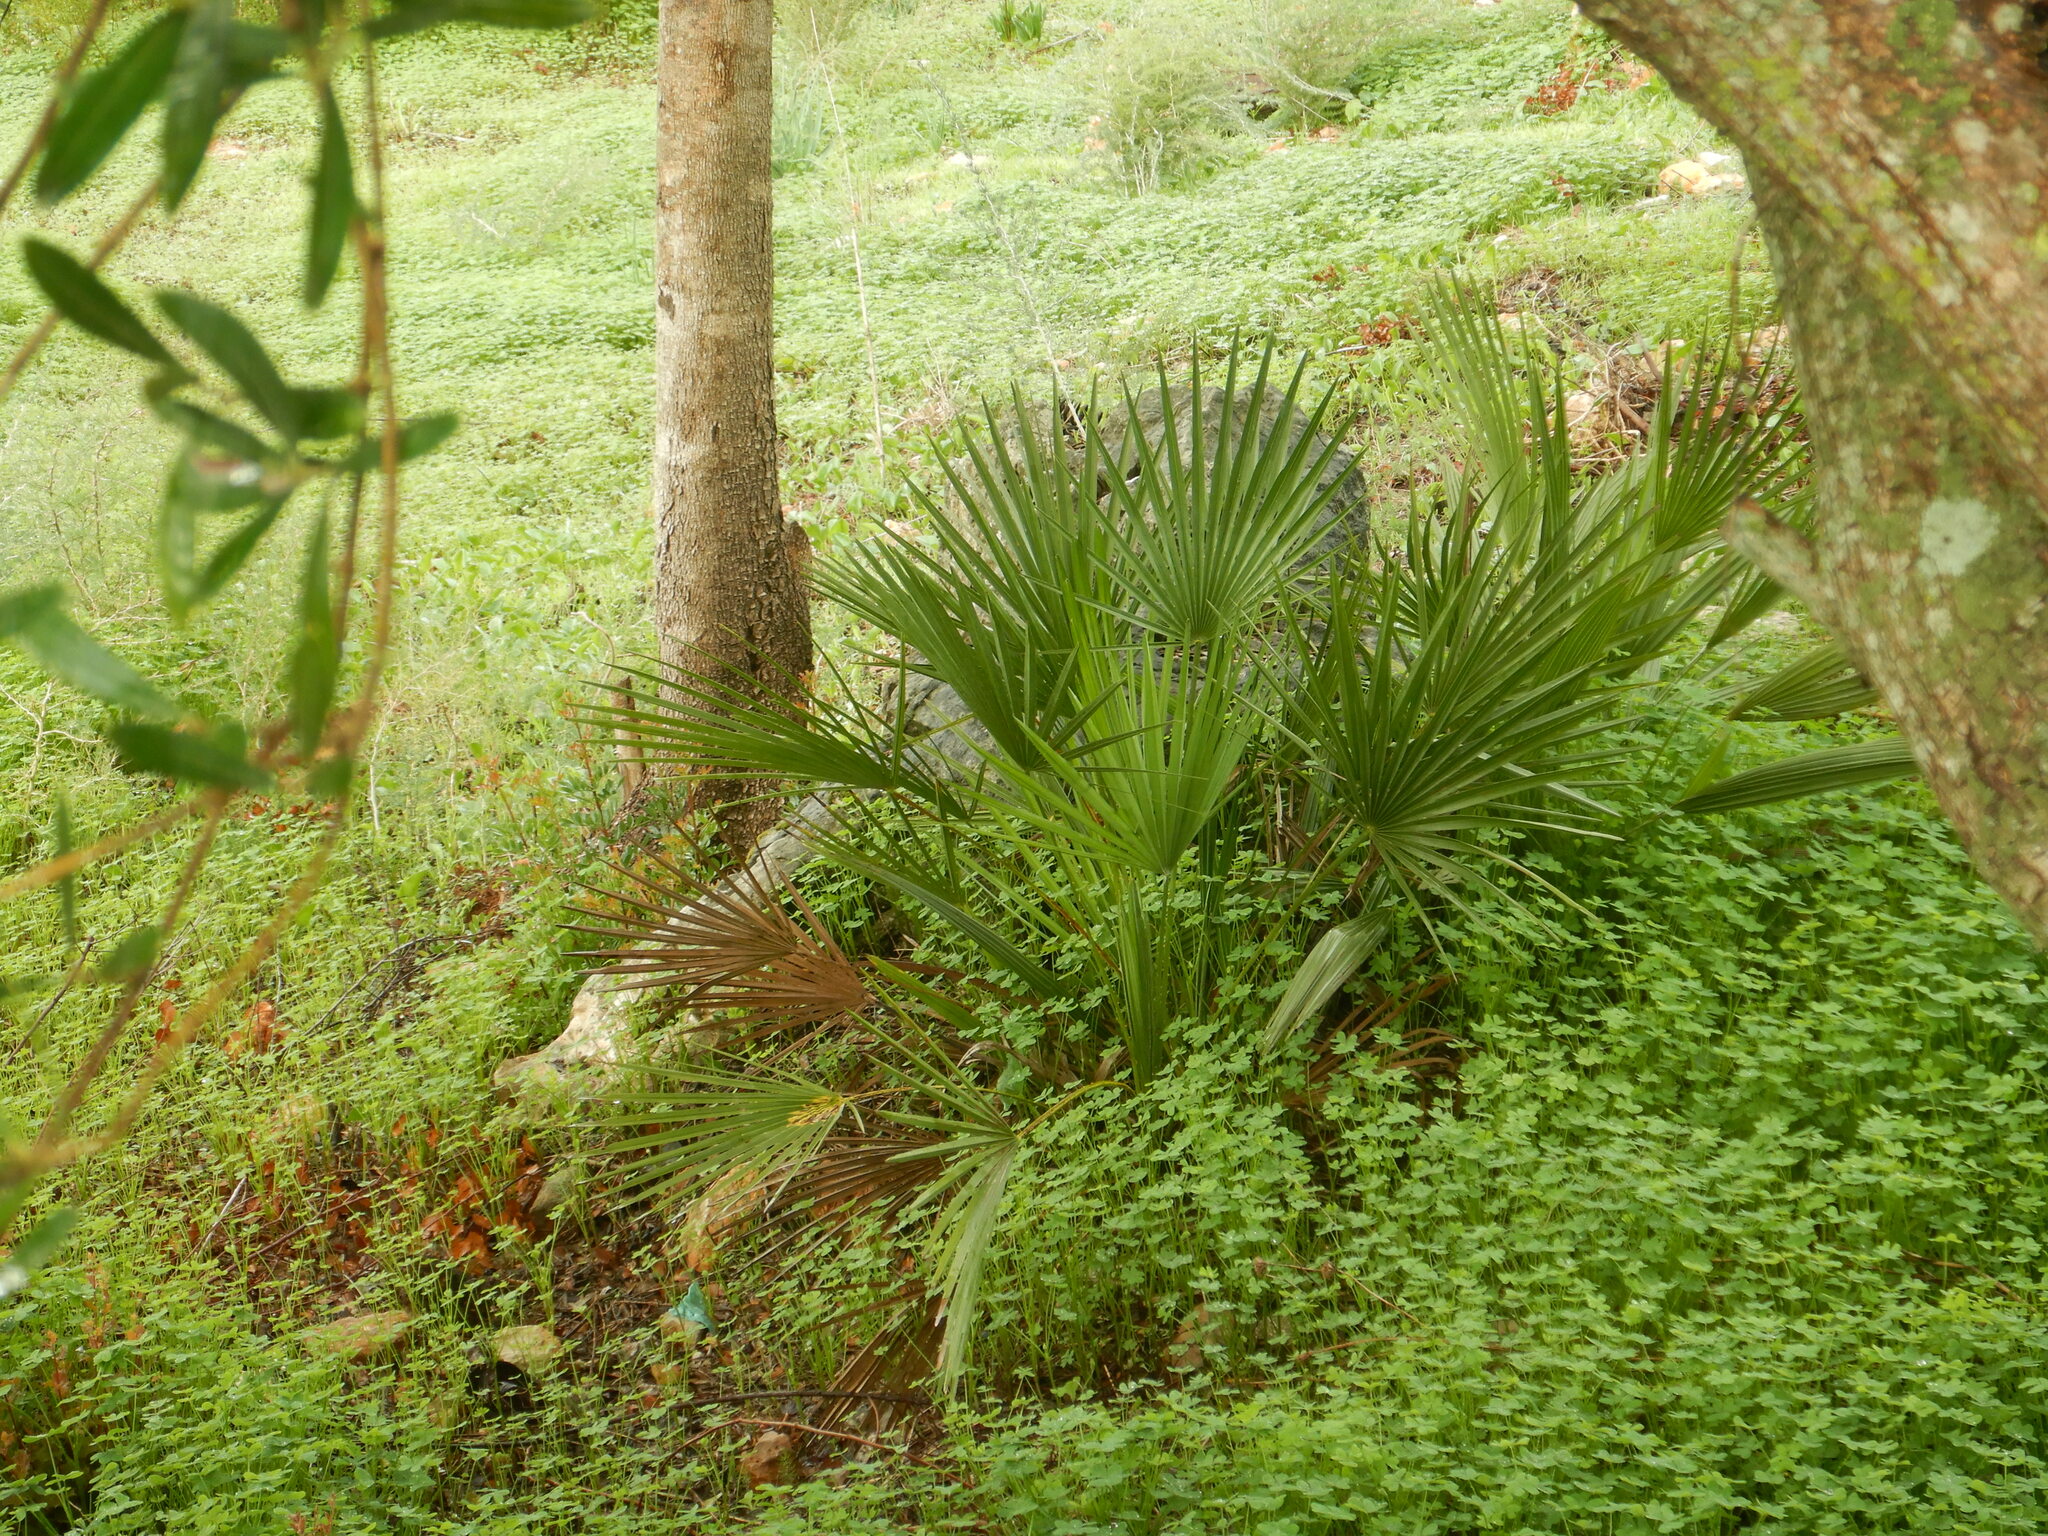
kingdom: Plantae
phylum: Tracheophyta
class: Liliopsida
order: Arecales
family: Arecaceae
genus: Chamaerops
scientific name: Chamaerops humilis
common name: Dwarf fan palm
